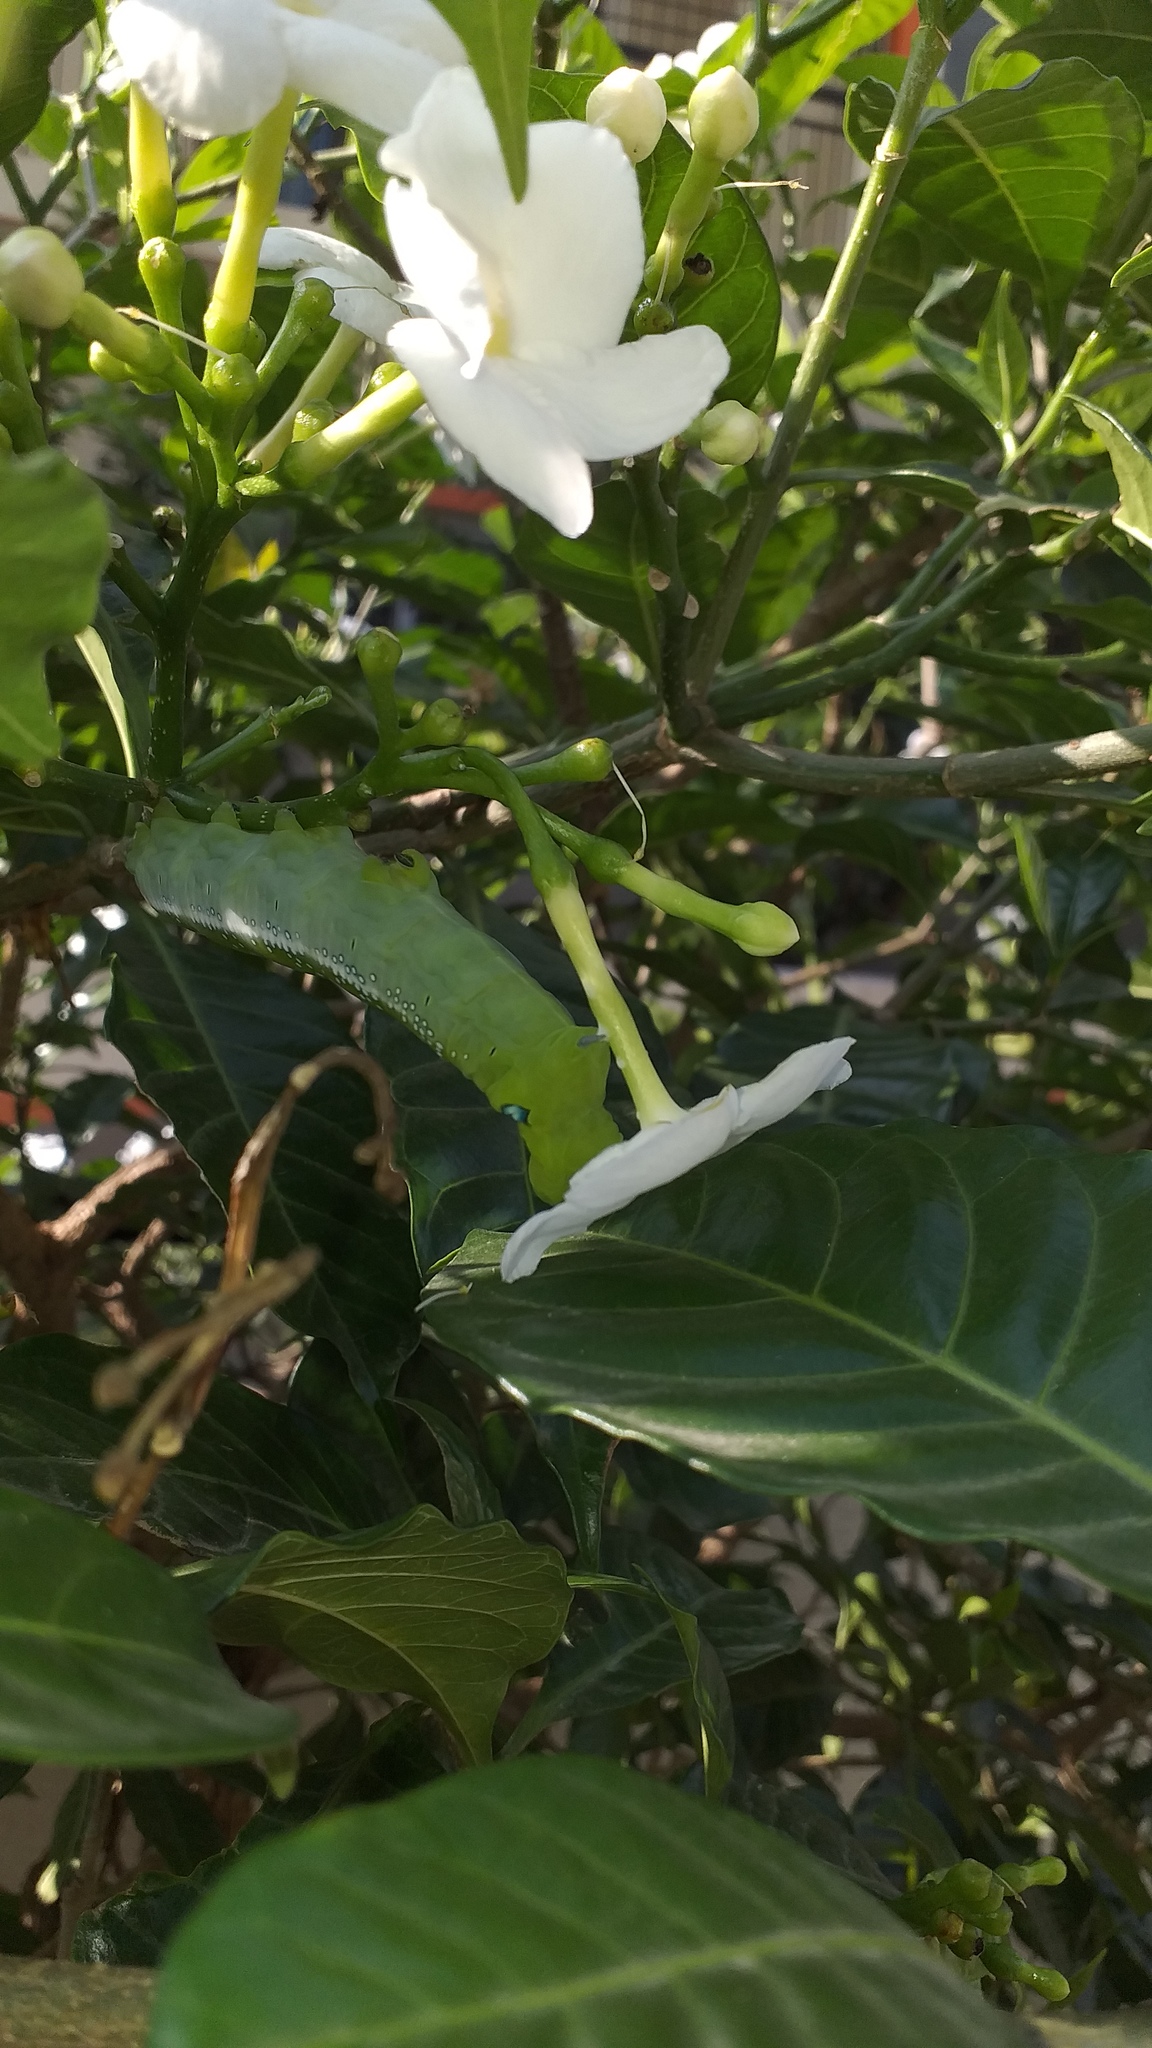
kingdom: Animalia
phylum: Arthropoda
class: Insecta
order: Lepidoptera
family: Sphingidae
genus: Daphnis
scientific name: Daphnis nerii
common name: Oleander hawk-moth
